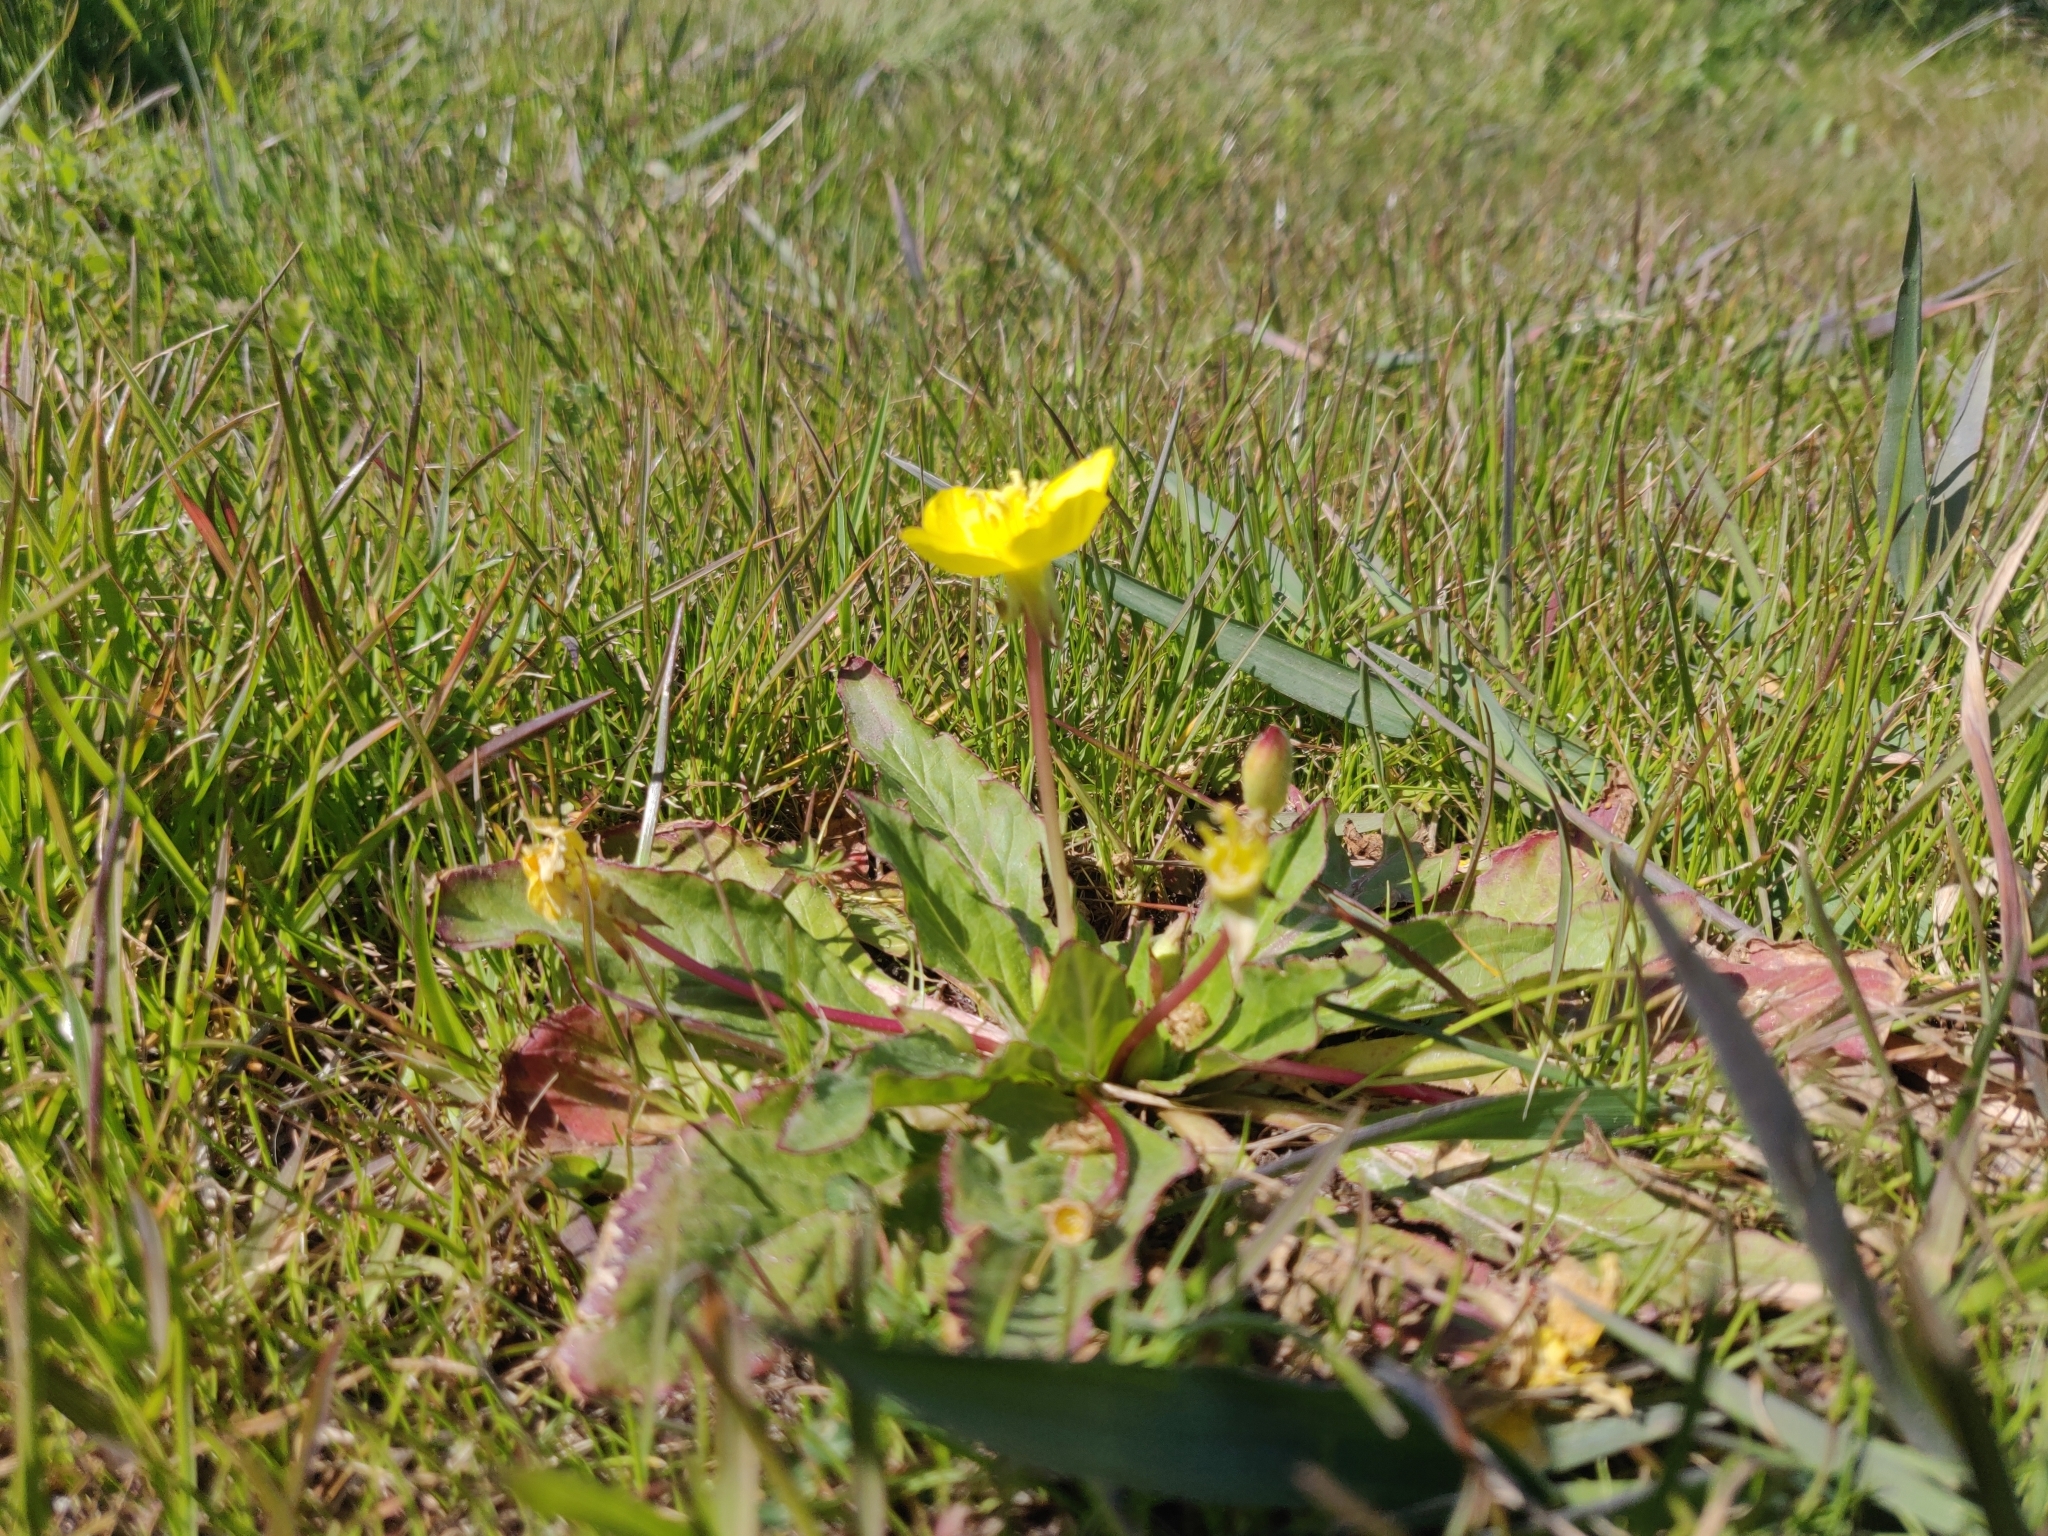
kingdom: Plantae
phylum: Tracheophyta
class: Magnoliopsida
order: Myrtales
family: Onagraceae
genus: Taraxia
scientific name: Taraxia ovata
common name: Goldeneggs
